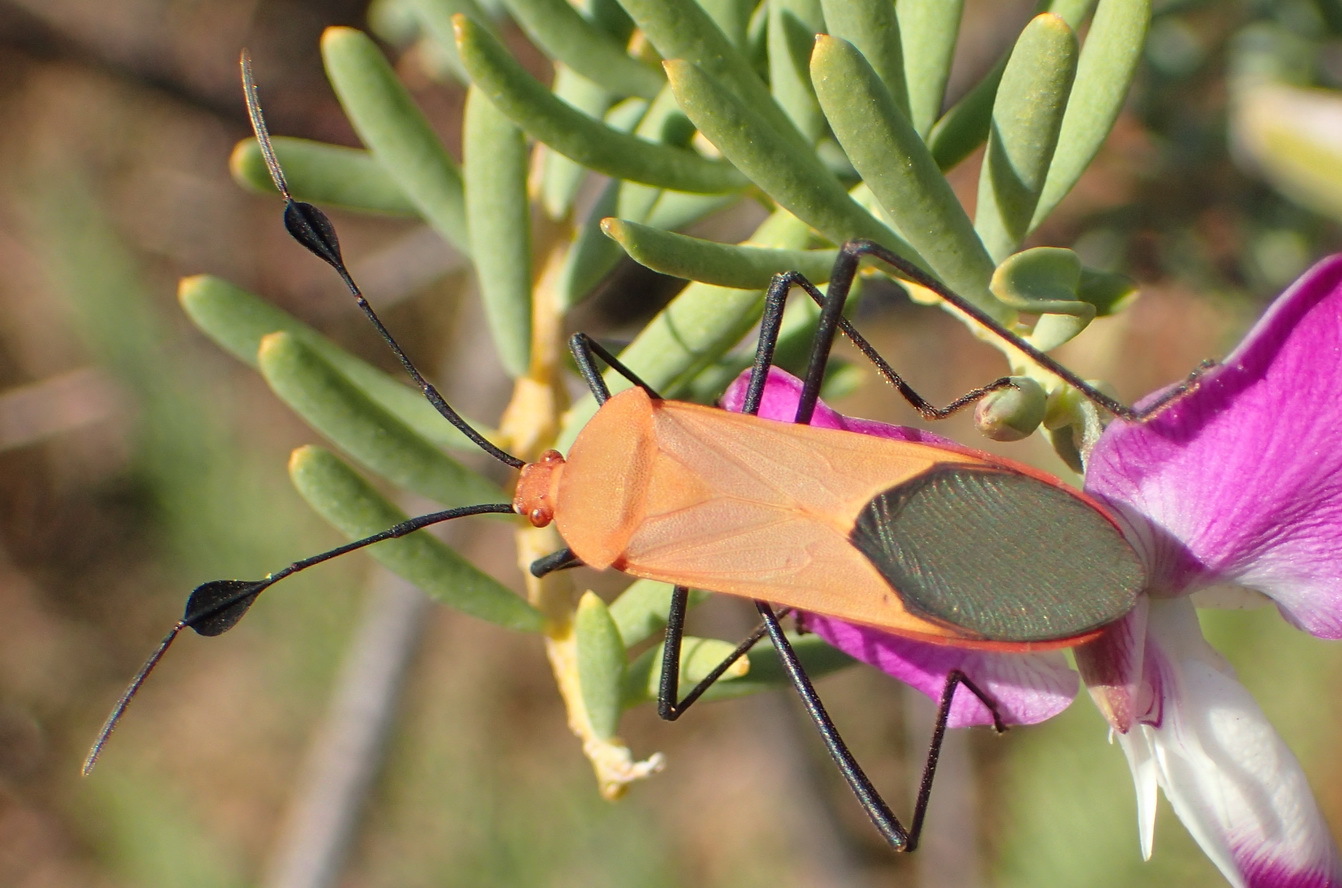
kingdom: Animalia
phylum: Arthropoda
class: Insecta
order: Hemiptera
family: Coreidae
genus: Galaesus
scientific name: Galaesus hasticornis
